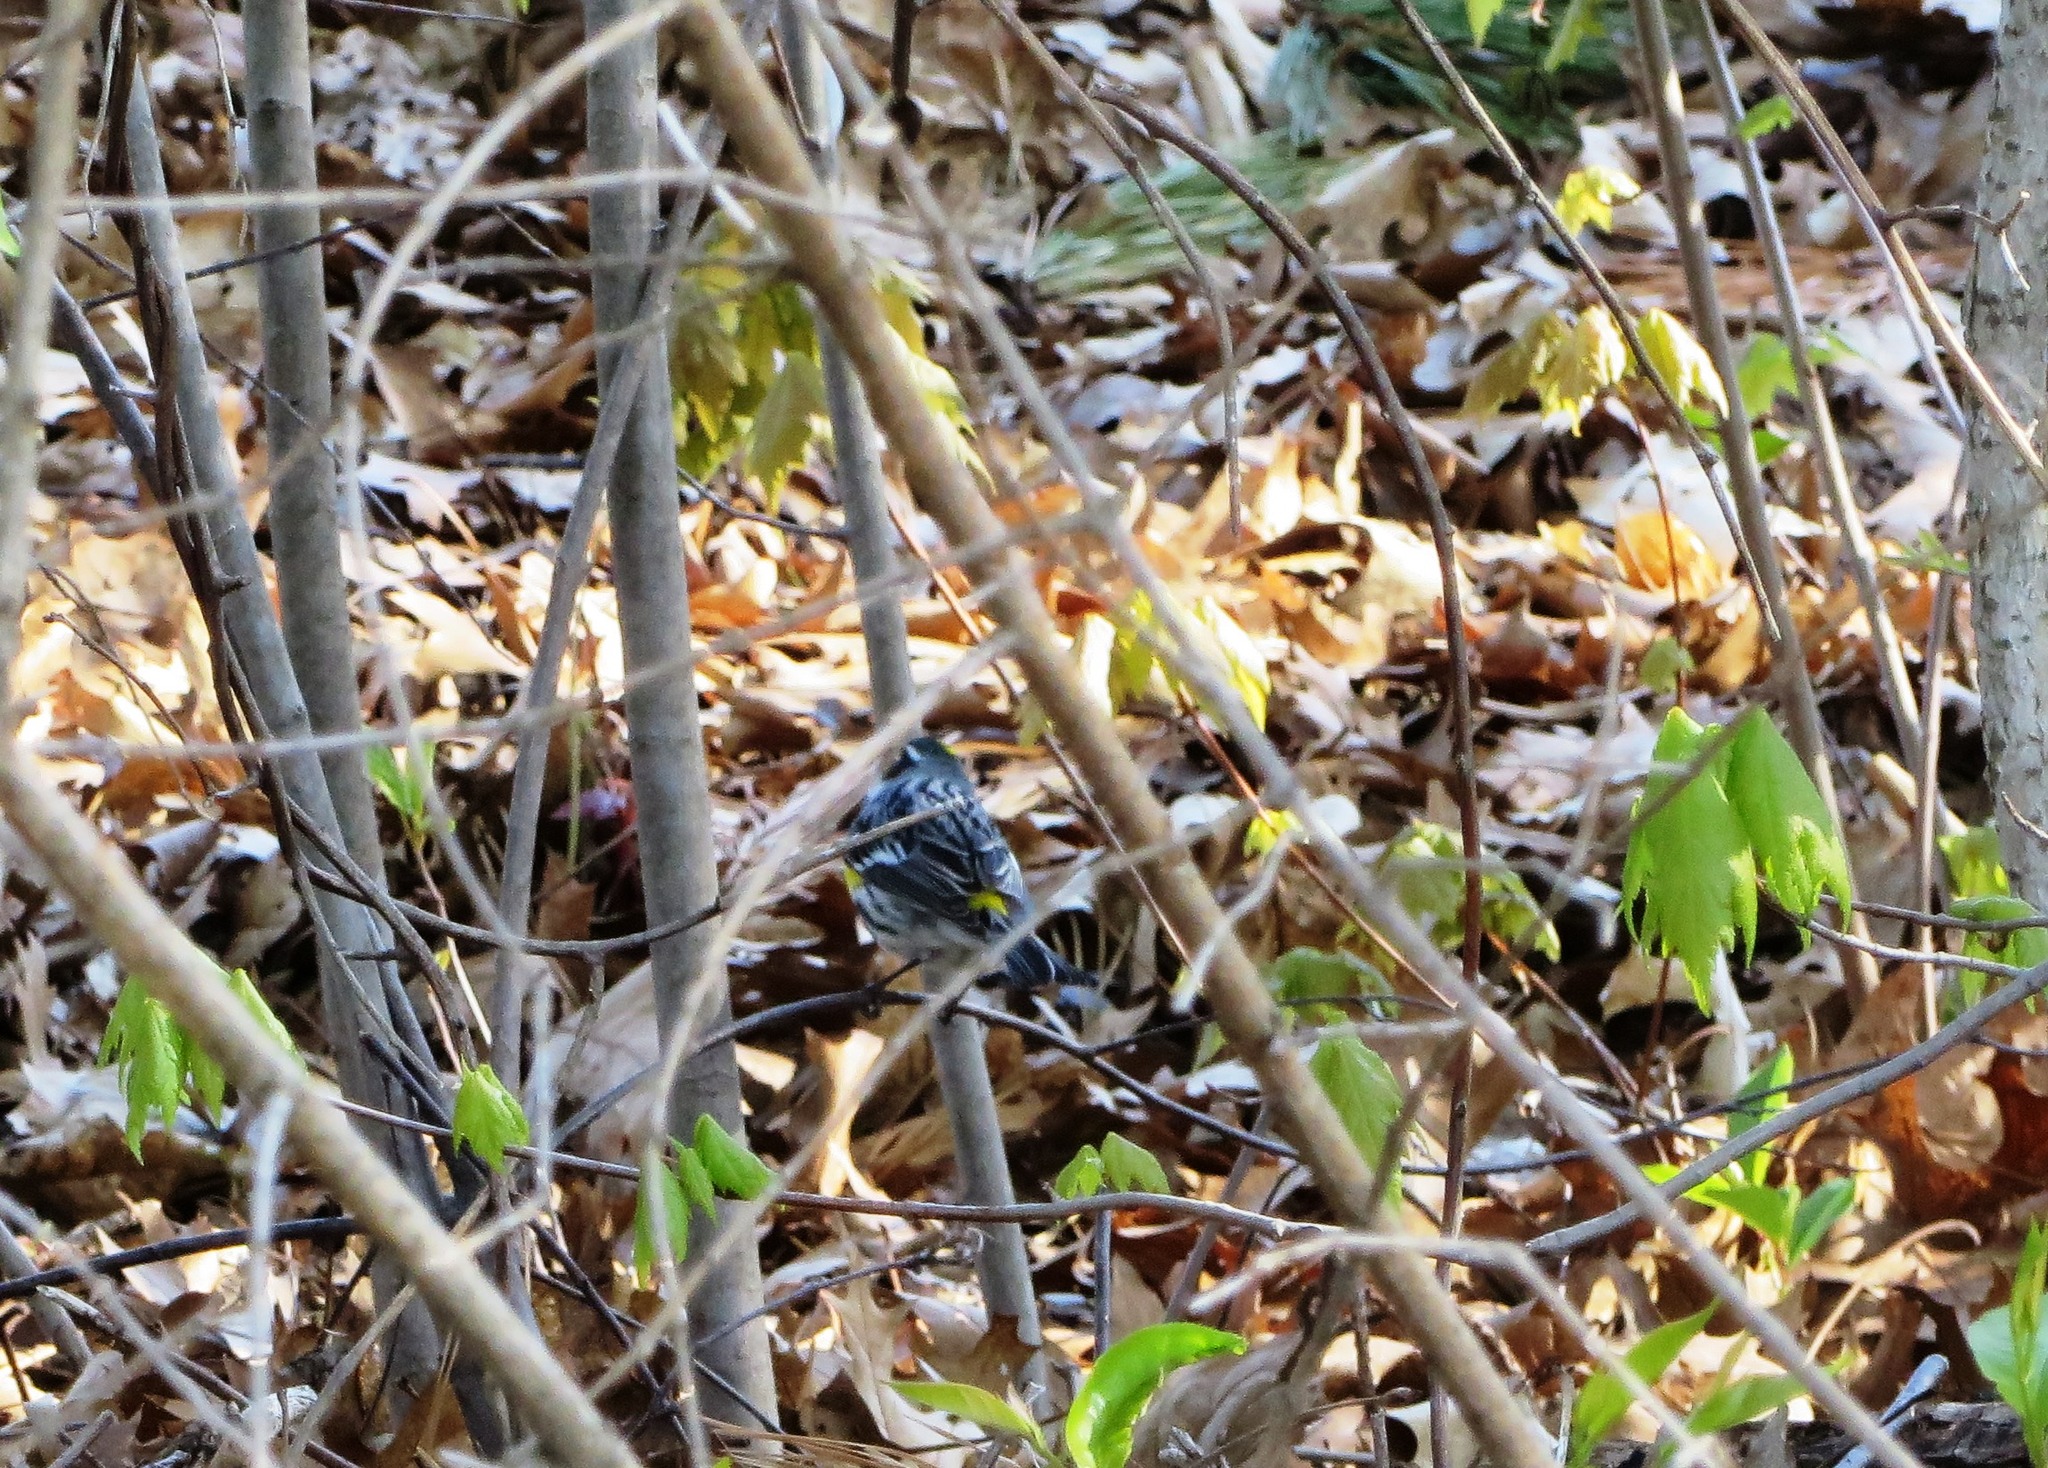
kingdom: Animalia
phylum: Chordata
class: Aves
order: Passeriformes
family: Parulidae
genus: Setophaga
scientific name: Setophaga coronata
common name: Myrtle warbler
